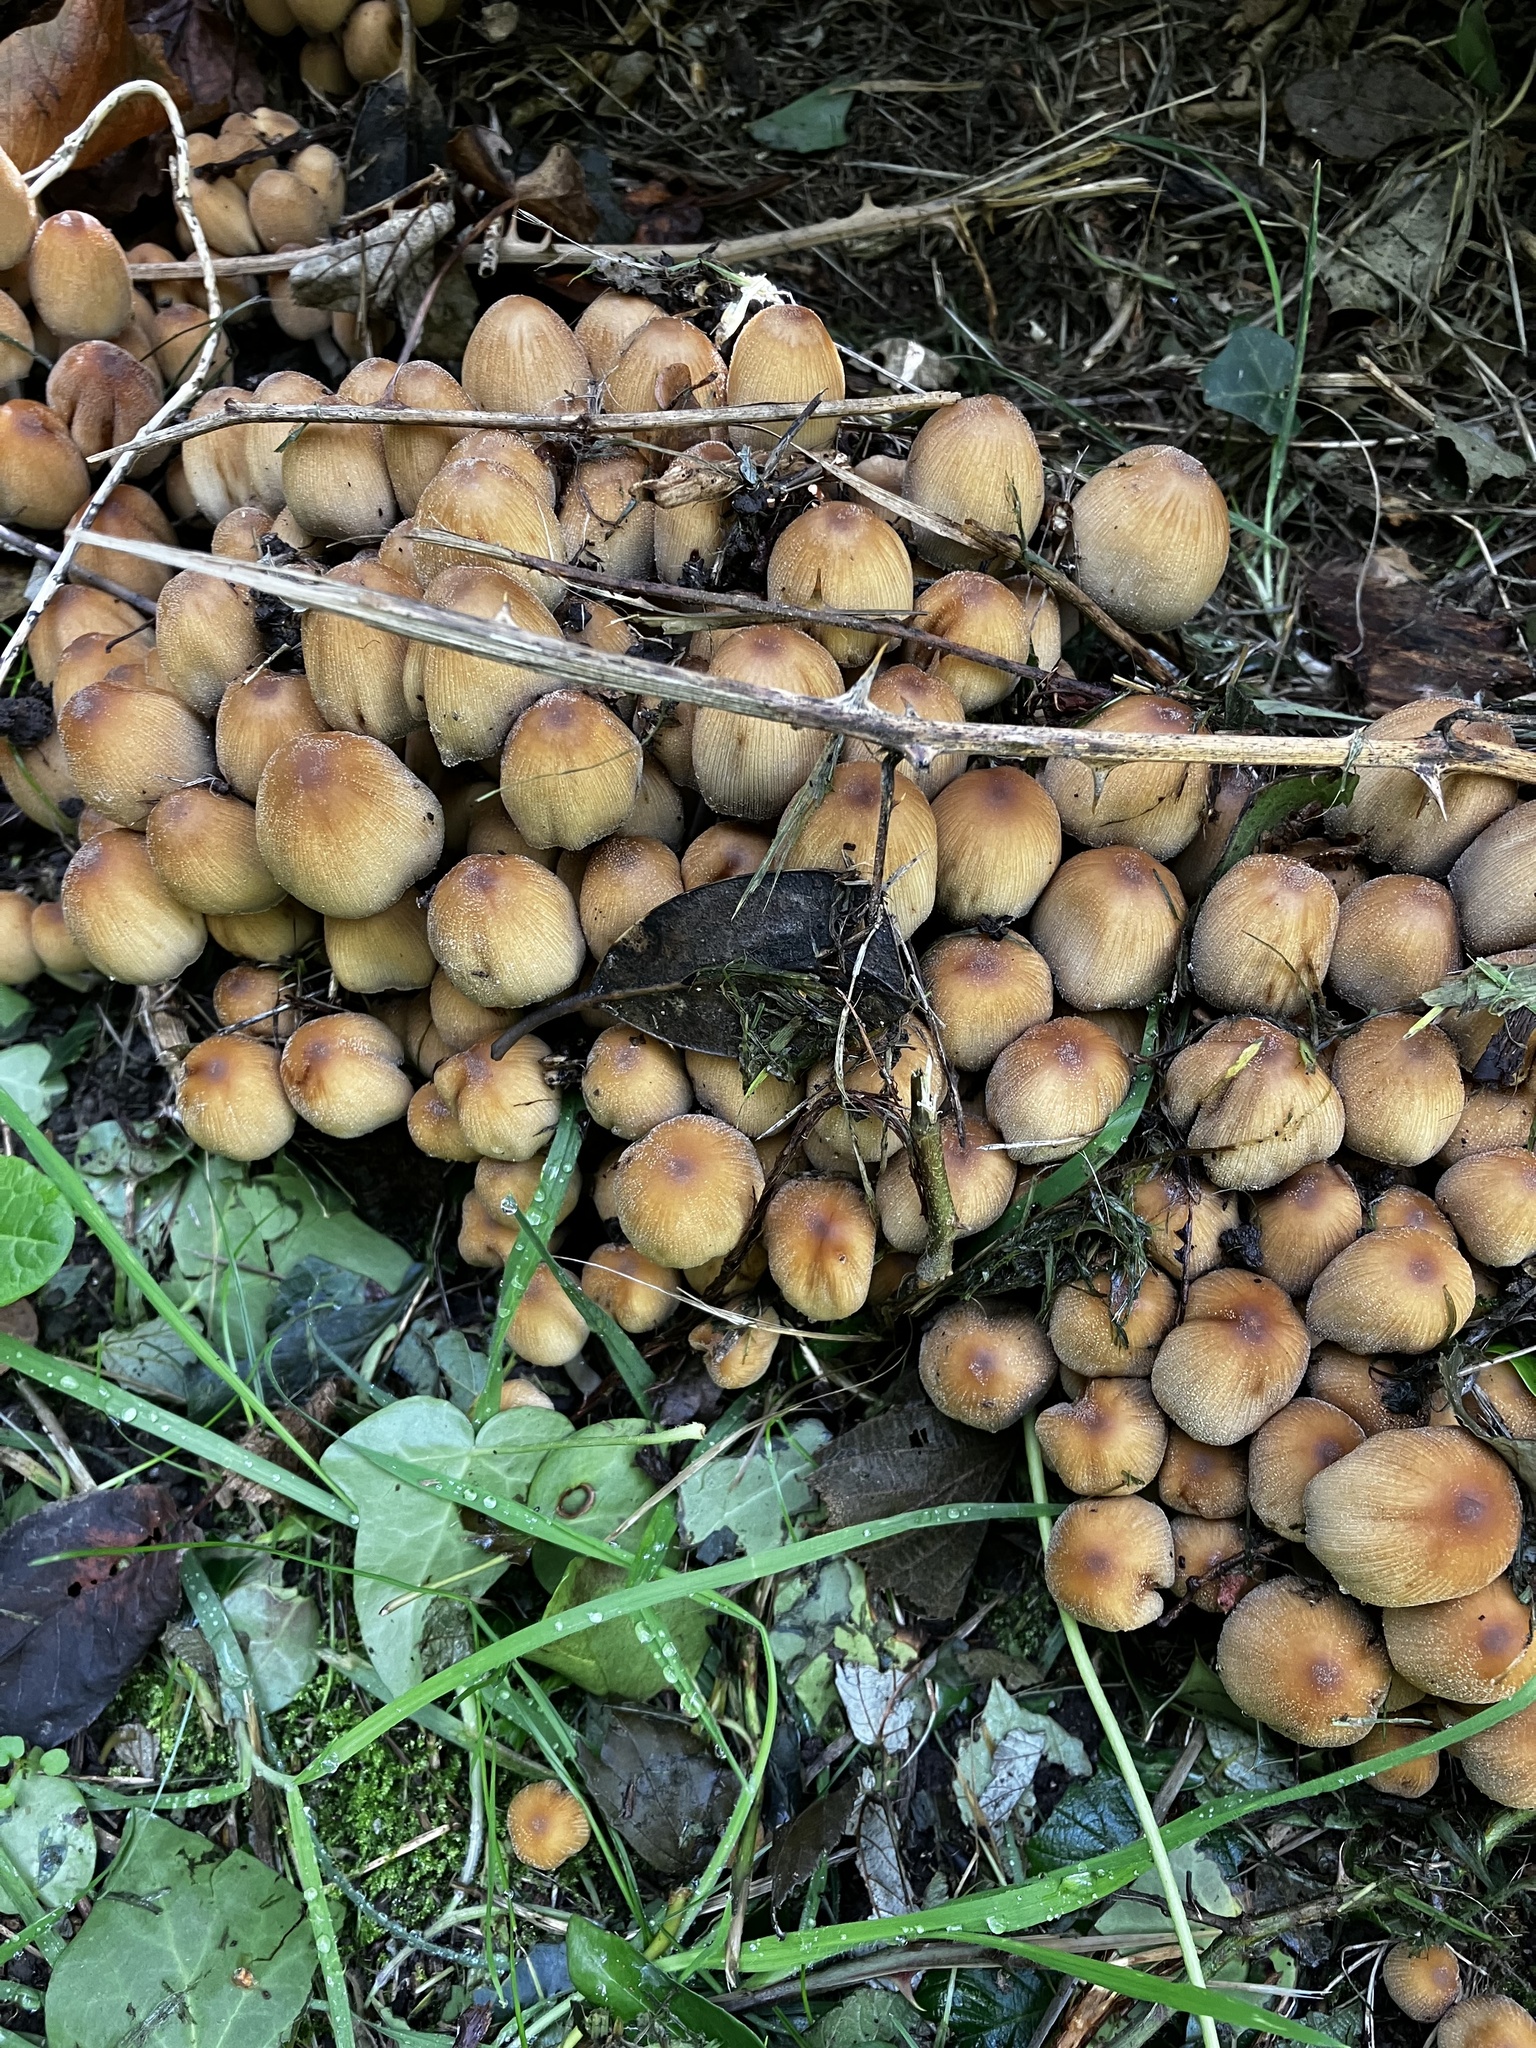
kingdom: Fungi
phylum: Basidiomycota
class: Agaricomycetes
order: Agaricales
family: Psathyrellaceae
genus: Coprinellus
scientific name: Coprinellus micaceus
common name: Glistening ink-cap
